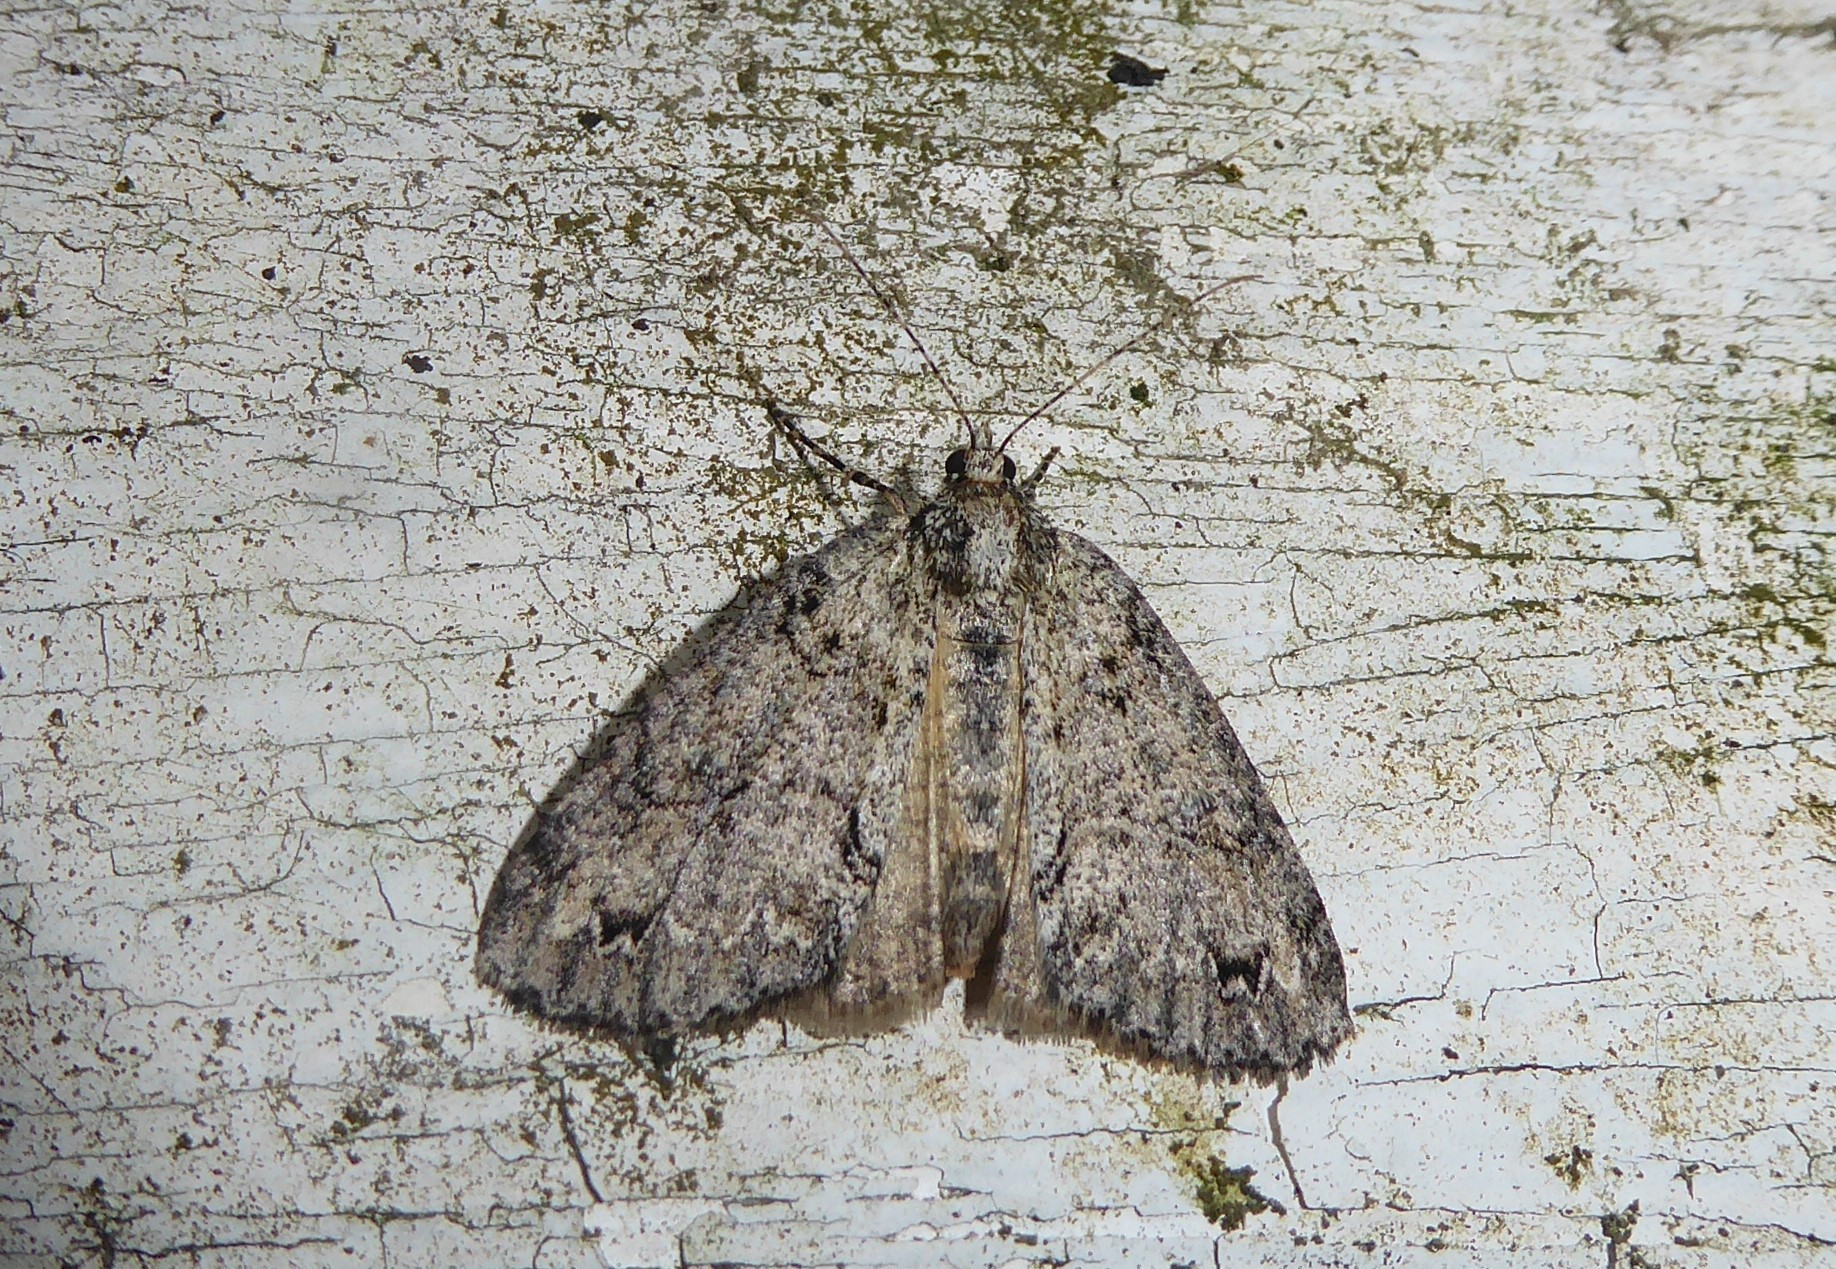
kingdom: Animalia
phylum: Arthropoda
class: Insecta
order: Lepidoptera
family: Geometridae
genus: Pseudocoremia
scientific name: Pseudocoremia suavis
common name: Common forest looper
